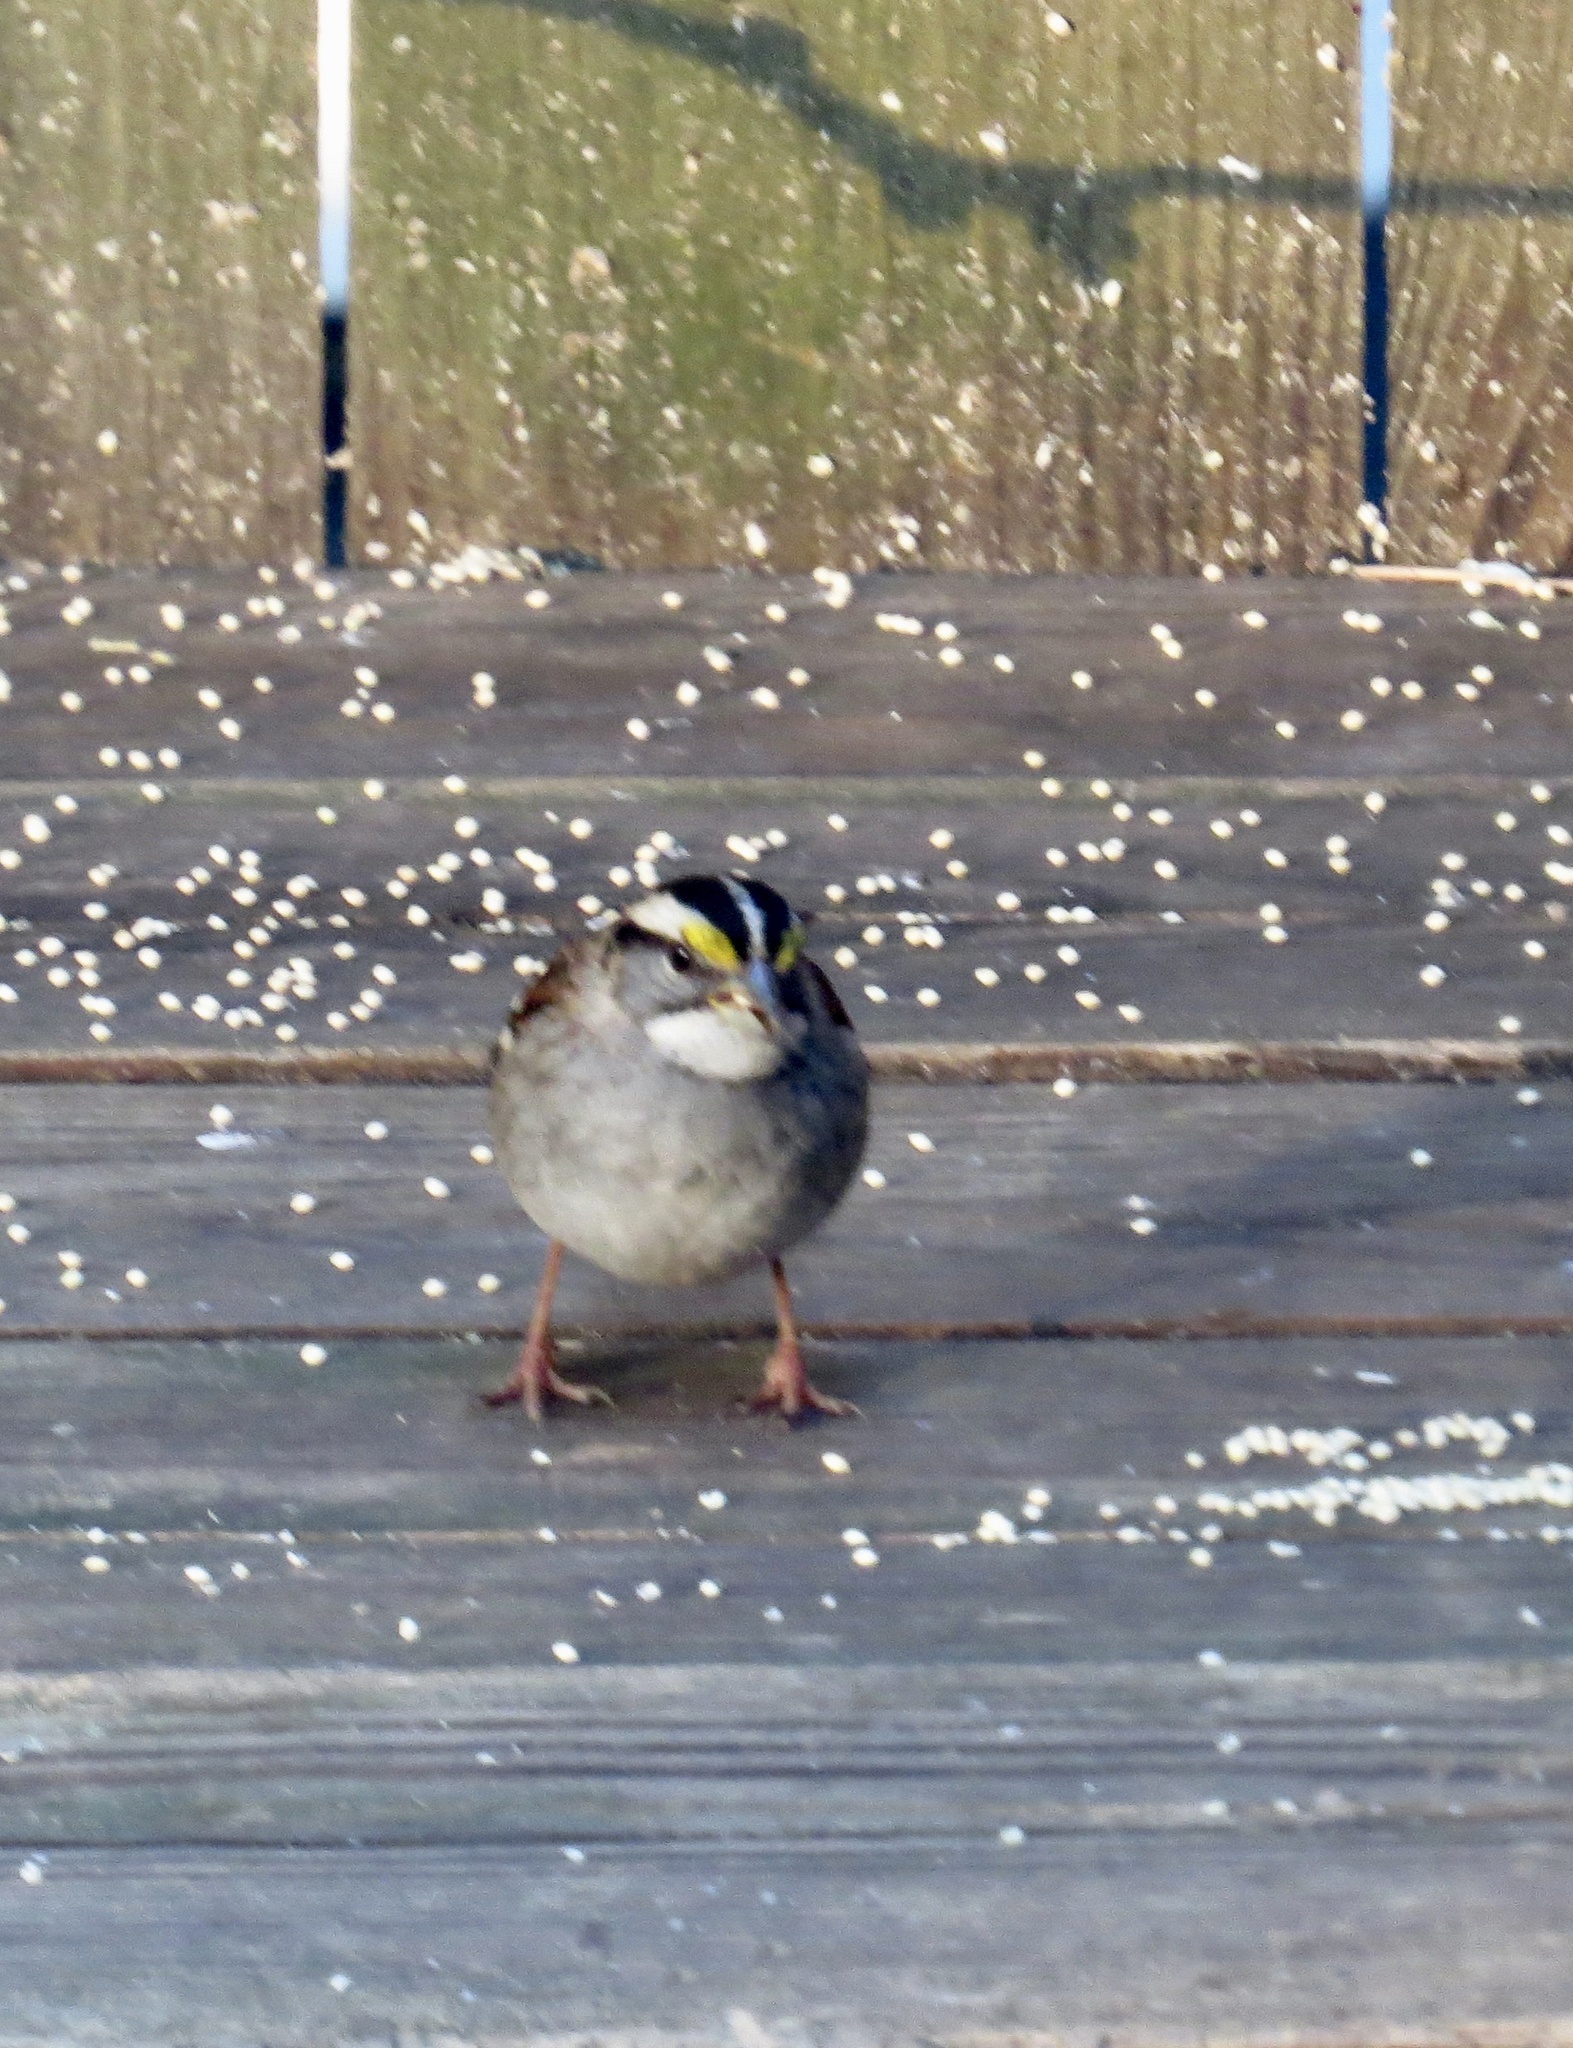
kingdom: Animalia
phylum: Chordata
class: Aves
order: Passeriformes
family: Passerellidae
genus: Zonotrichia
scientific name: Zonotrichia albicollis
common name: White-throated sparrow
